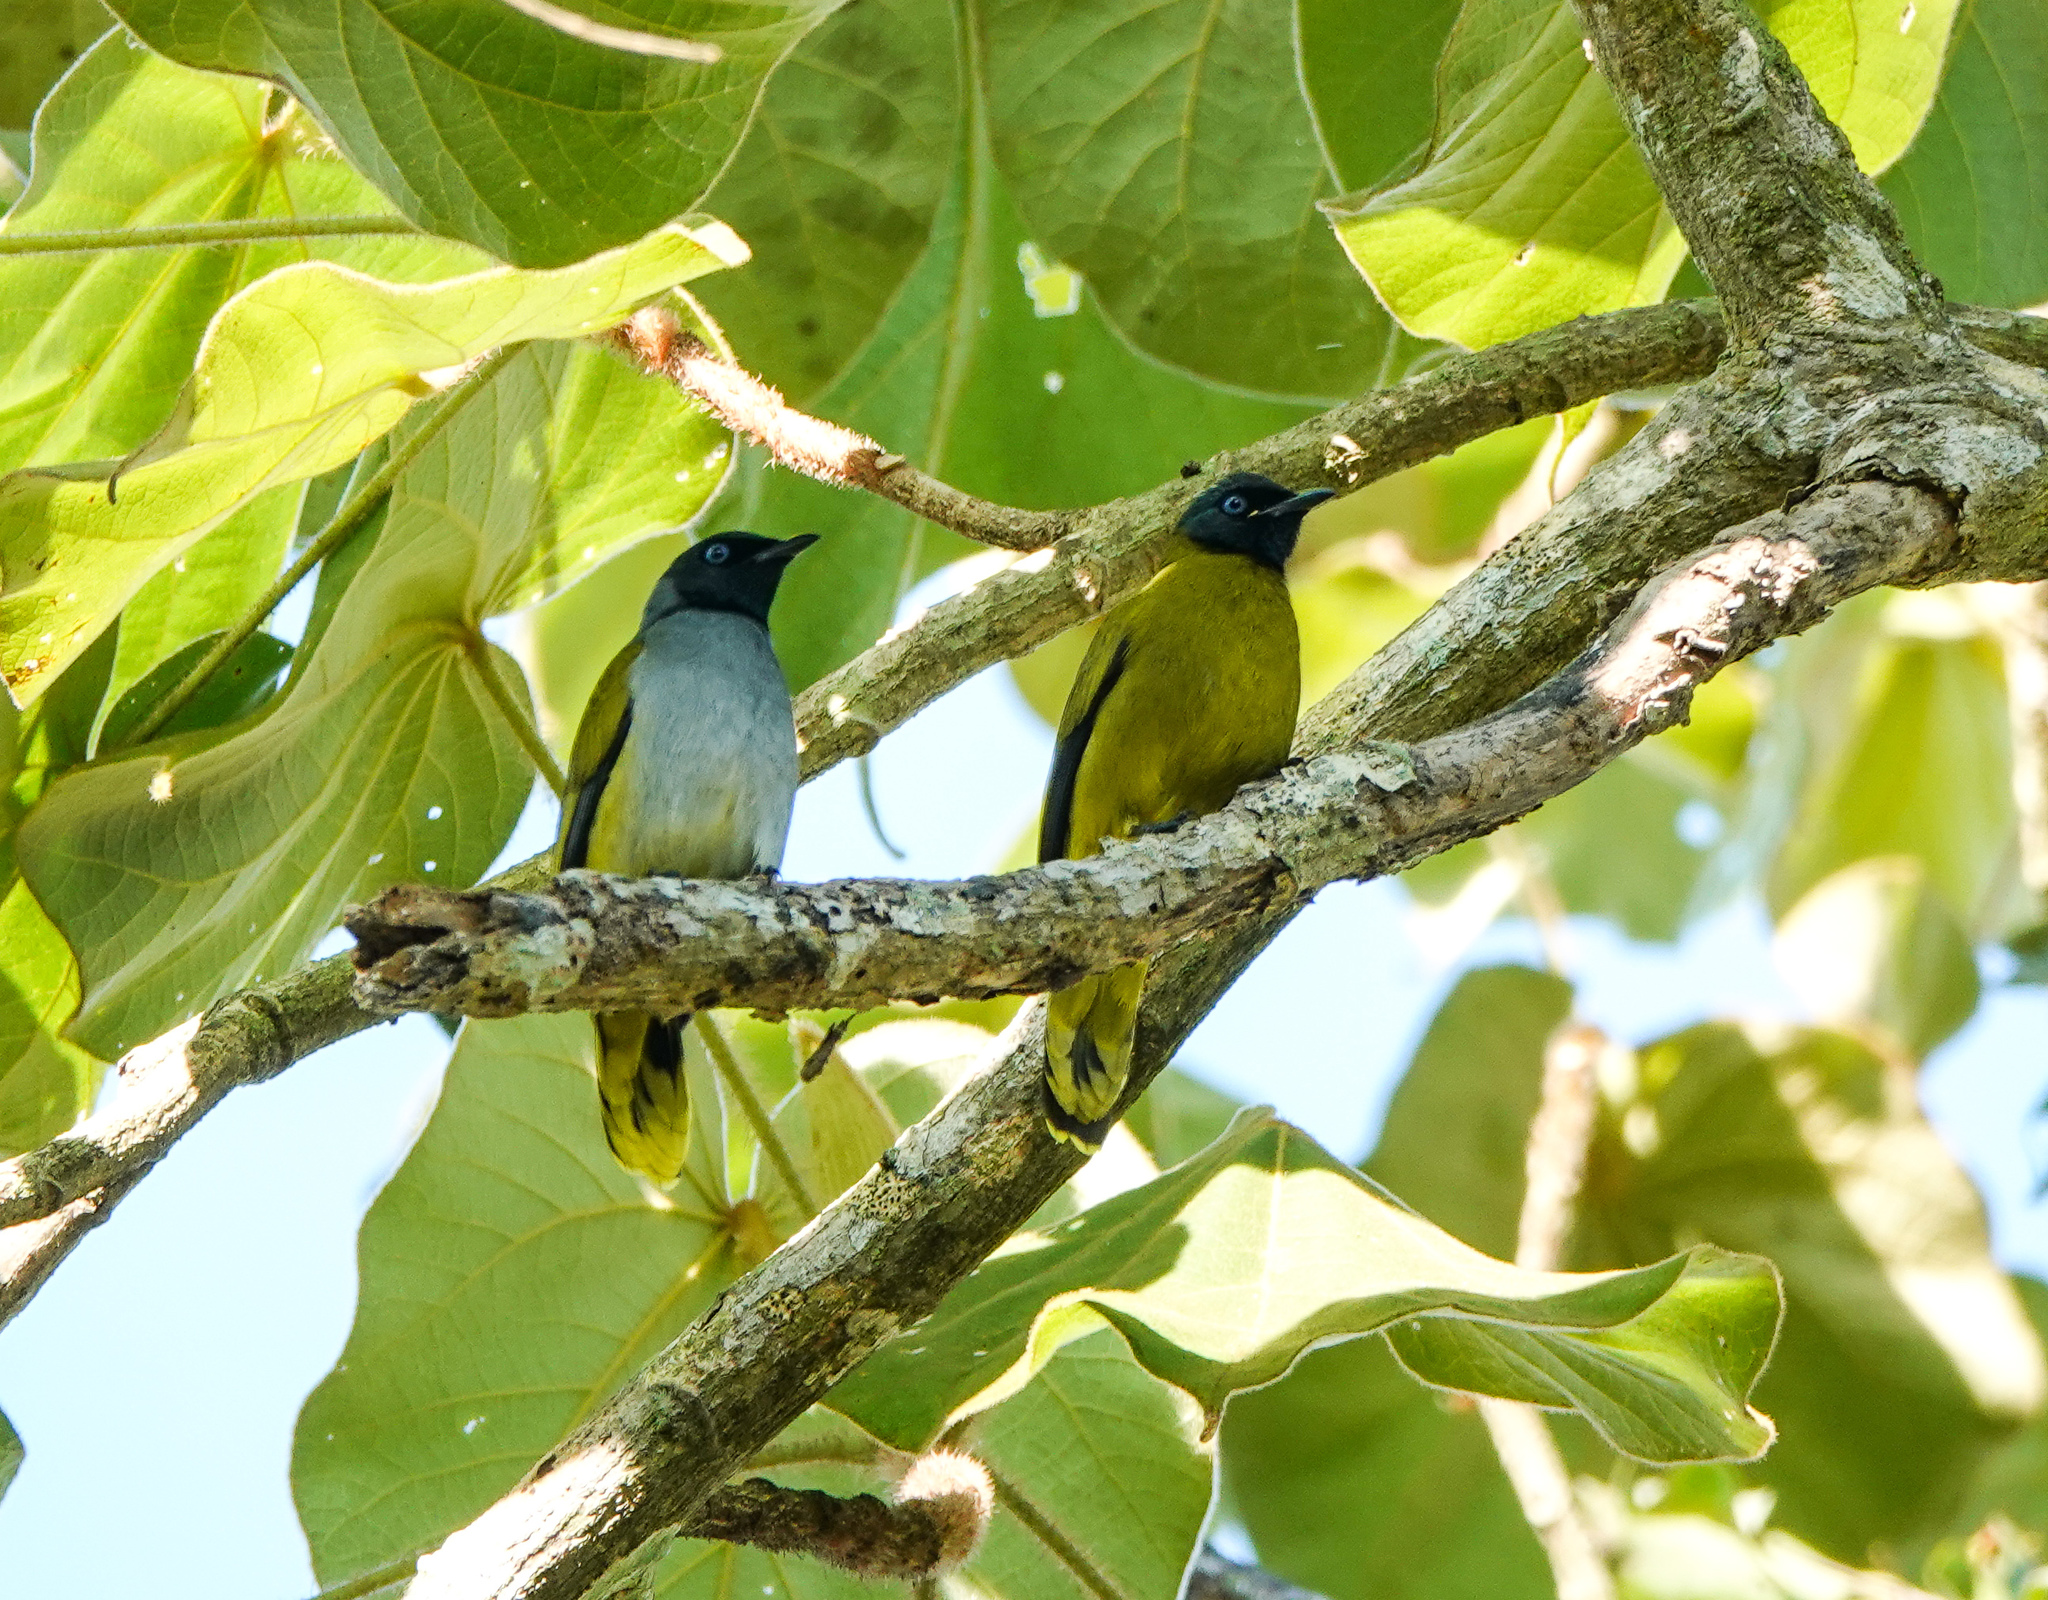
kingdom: Animalia
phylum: Chordata
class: Aves
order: Passeriformes
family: Pycnonotidae
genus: Microtarsus
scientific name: Microtarsus
